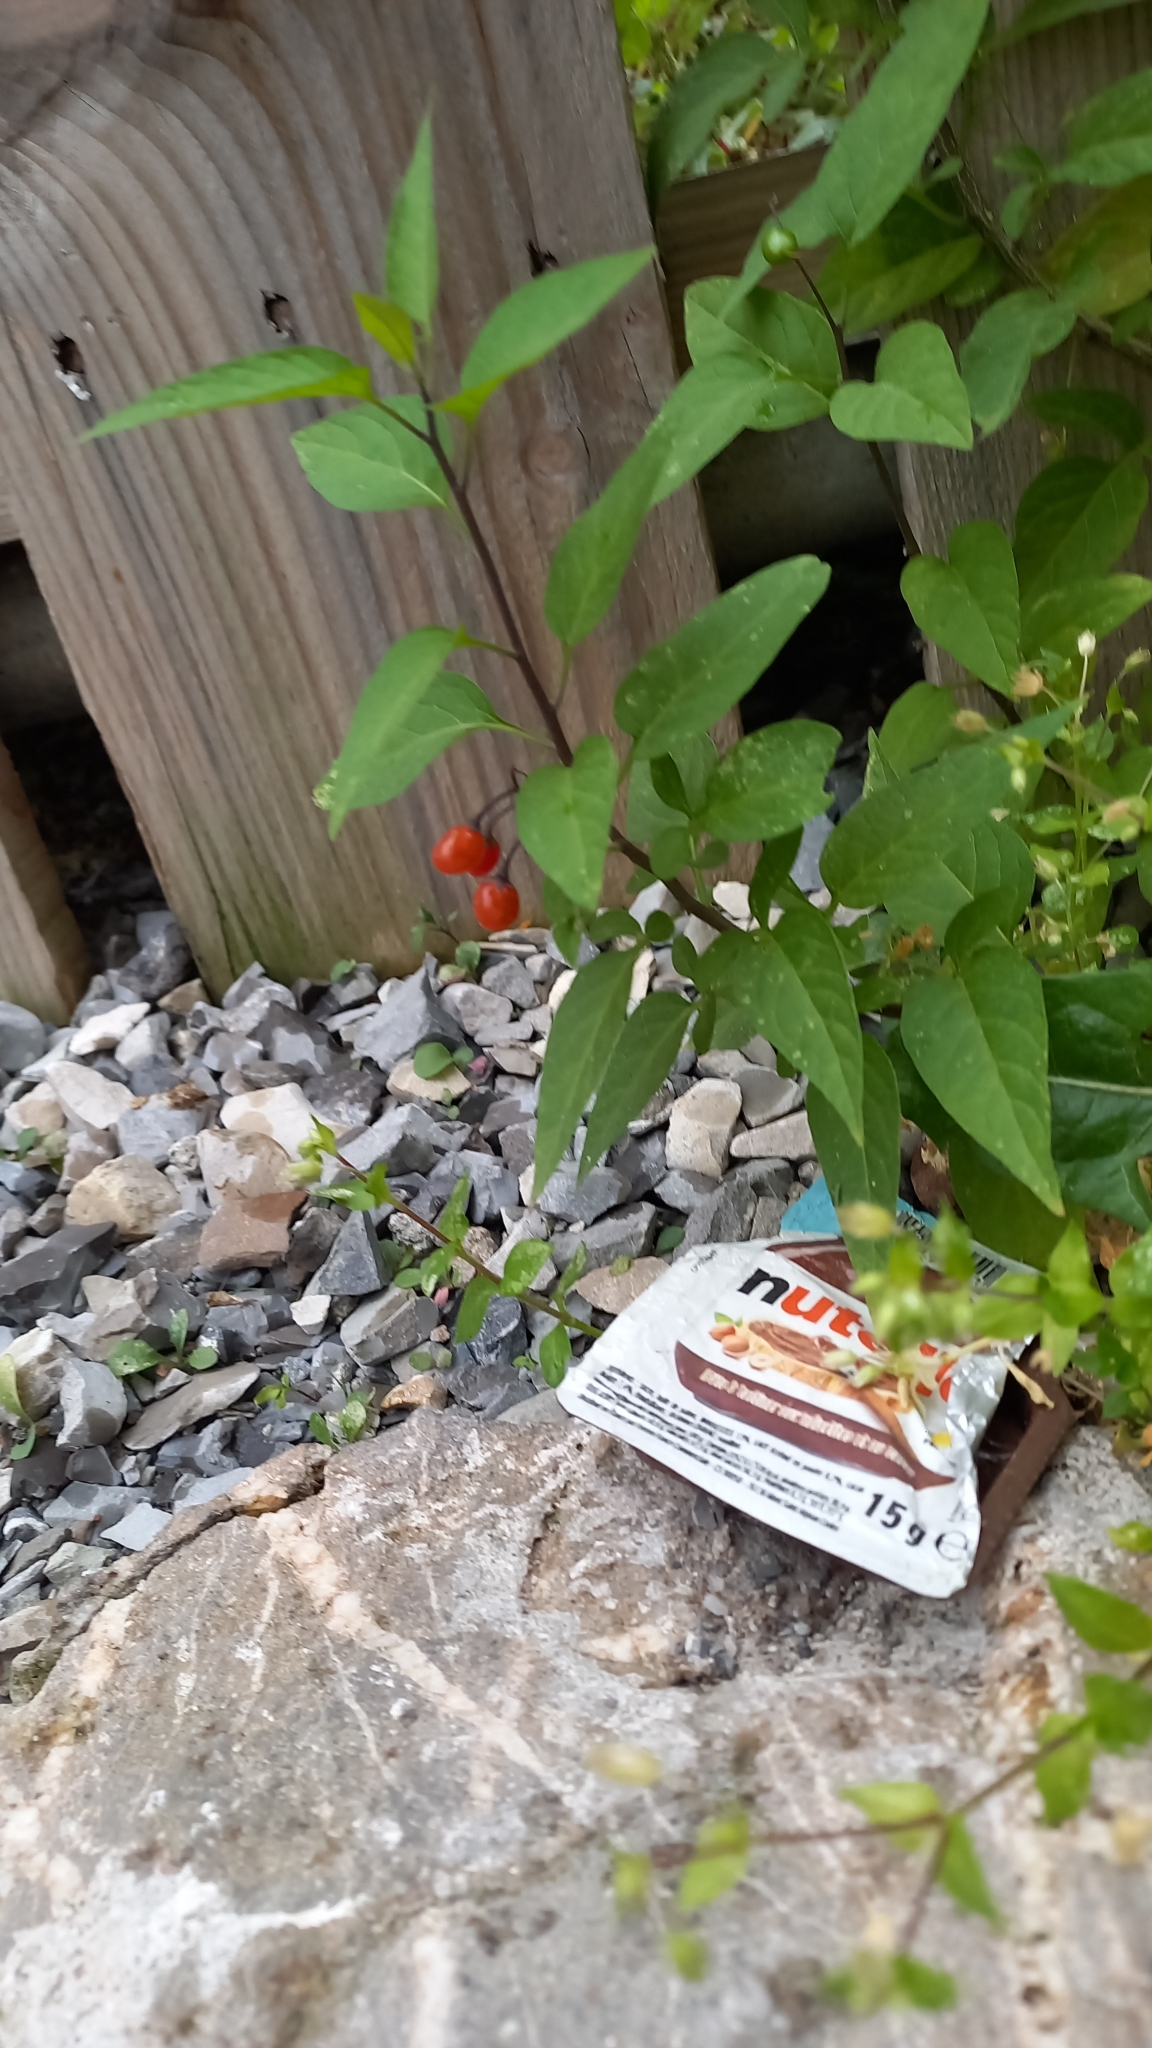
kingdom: Plantae
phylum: Tracheophyta
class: Magnoliopsida
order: Solanales
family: Solanaceae
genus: Solanum
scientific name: Solanum dulcamara
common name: Climbing nightshade
